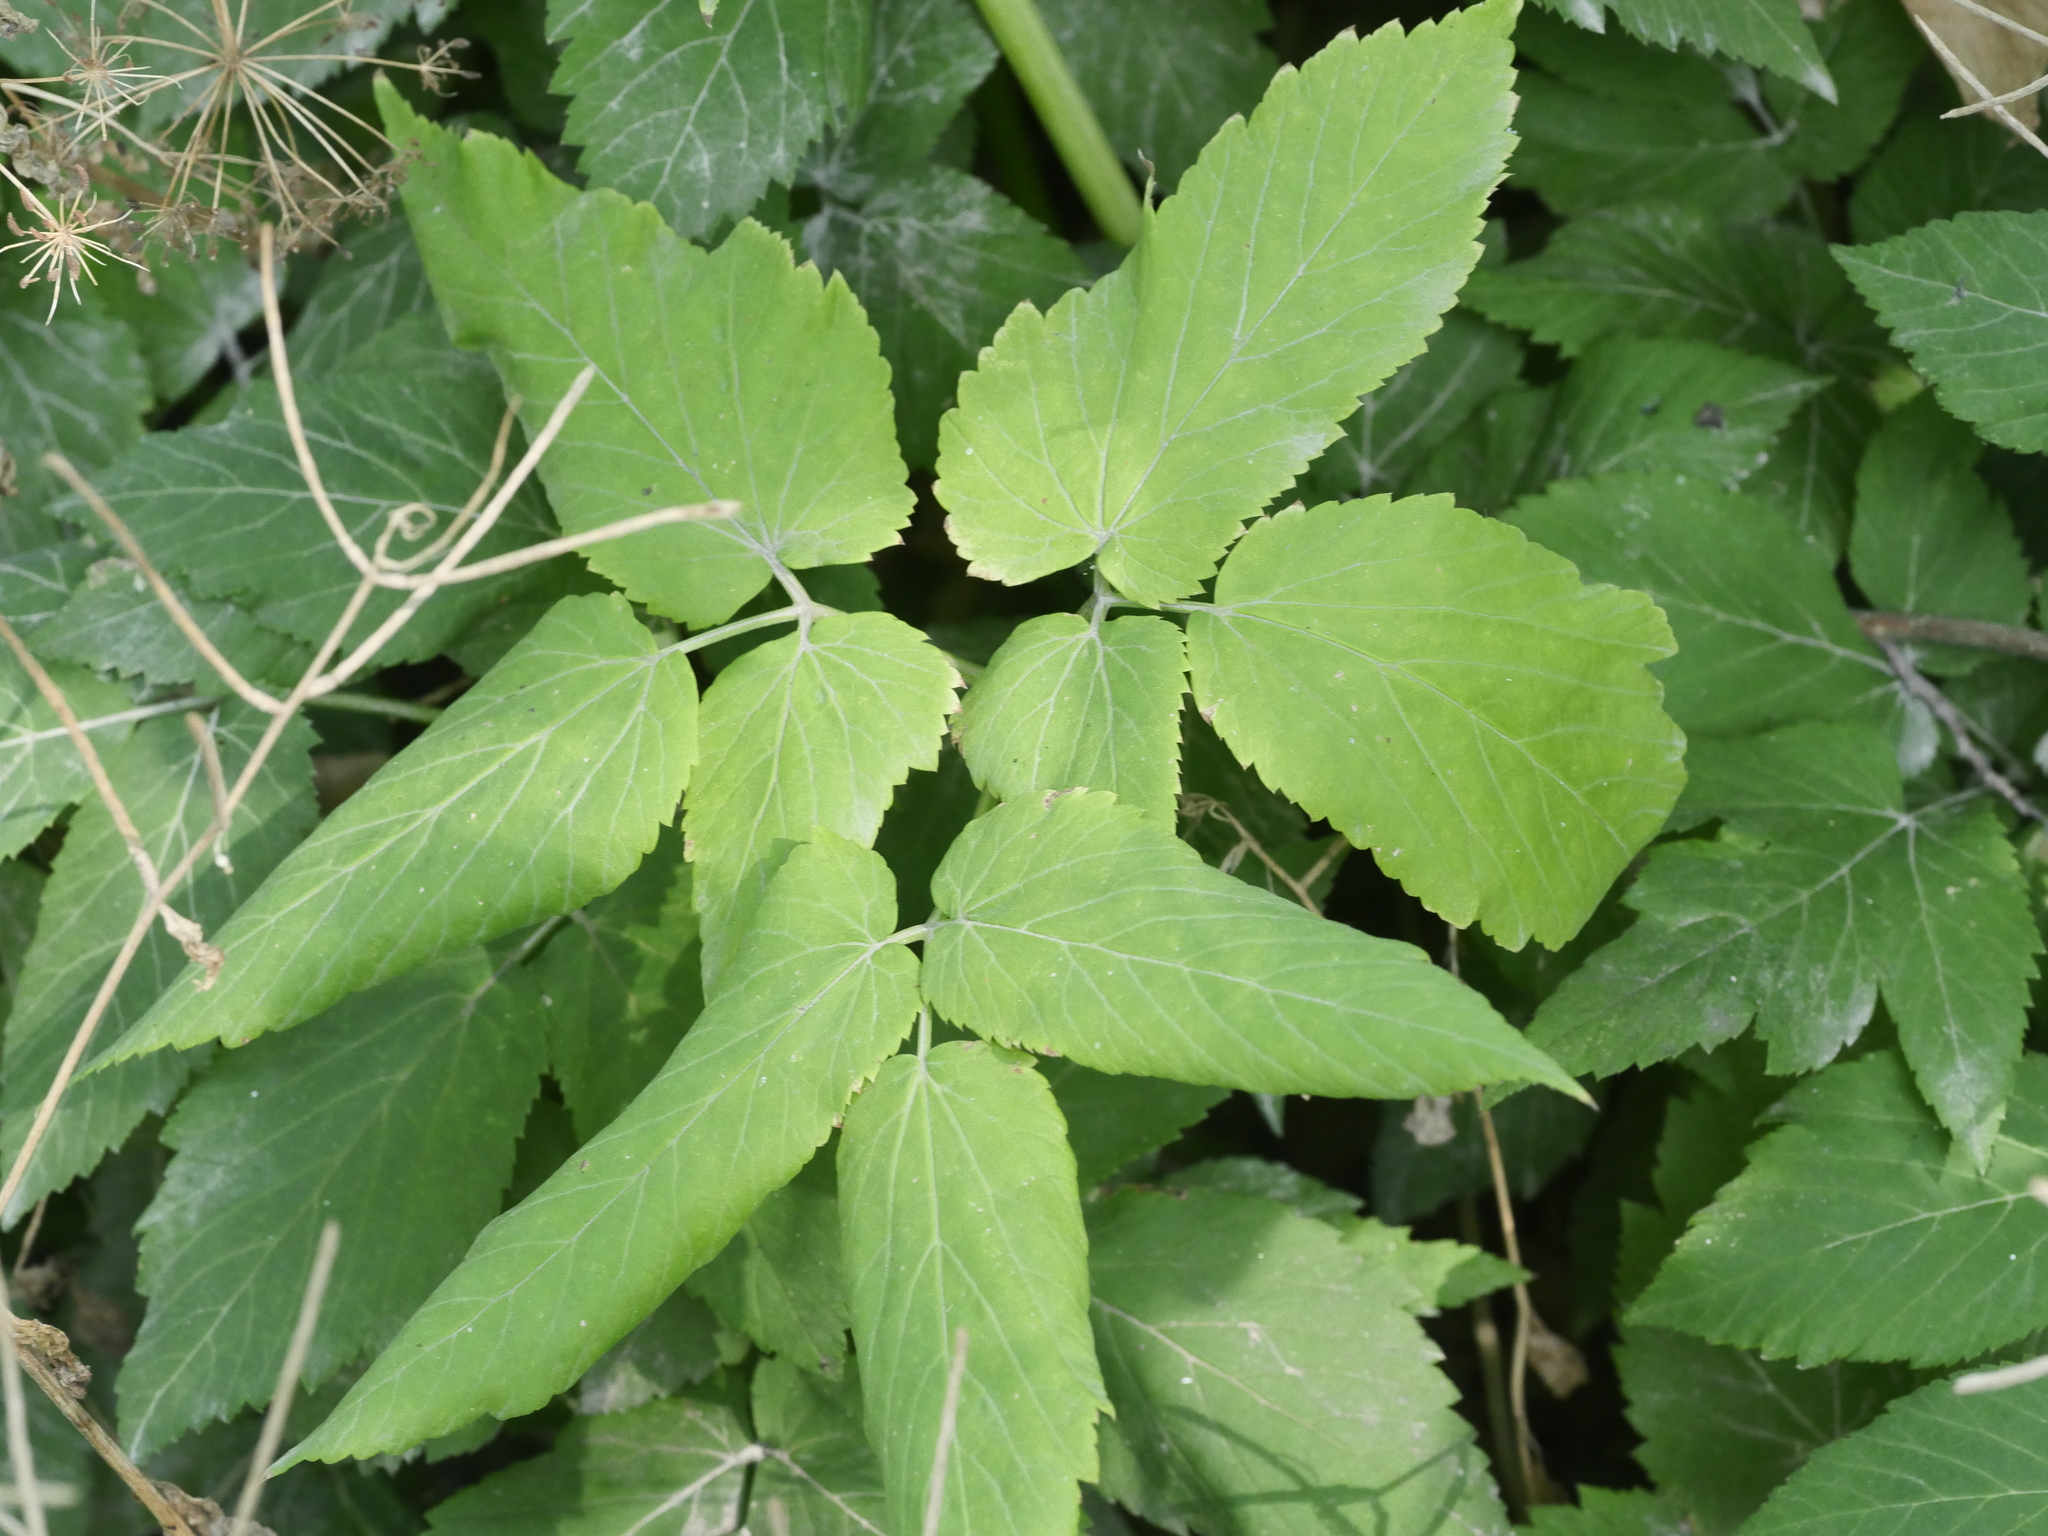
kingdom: Plantae
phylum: Tracheophyta
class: Magnoliopsida
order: Apiales
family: Apiaceae
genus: Aegopodium
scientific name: Aegopodium podagraria
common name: Ground-elder
